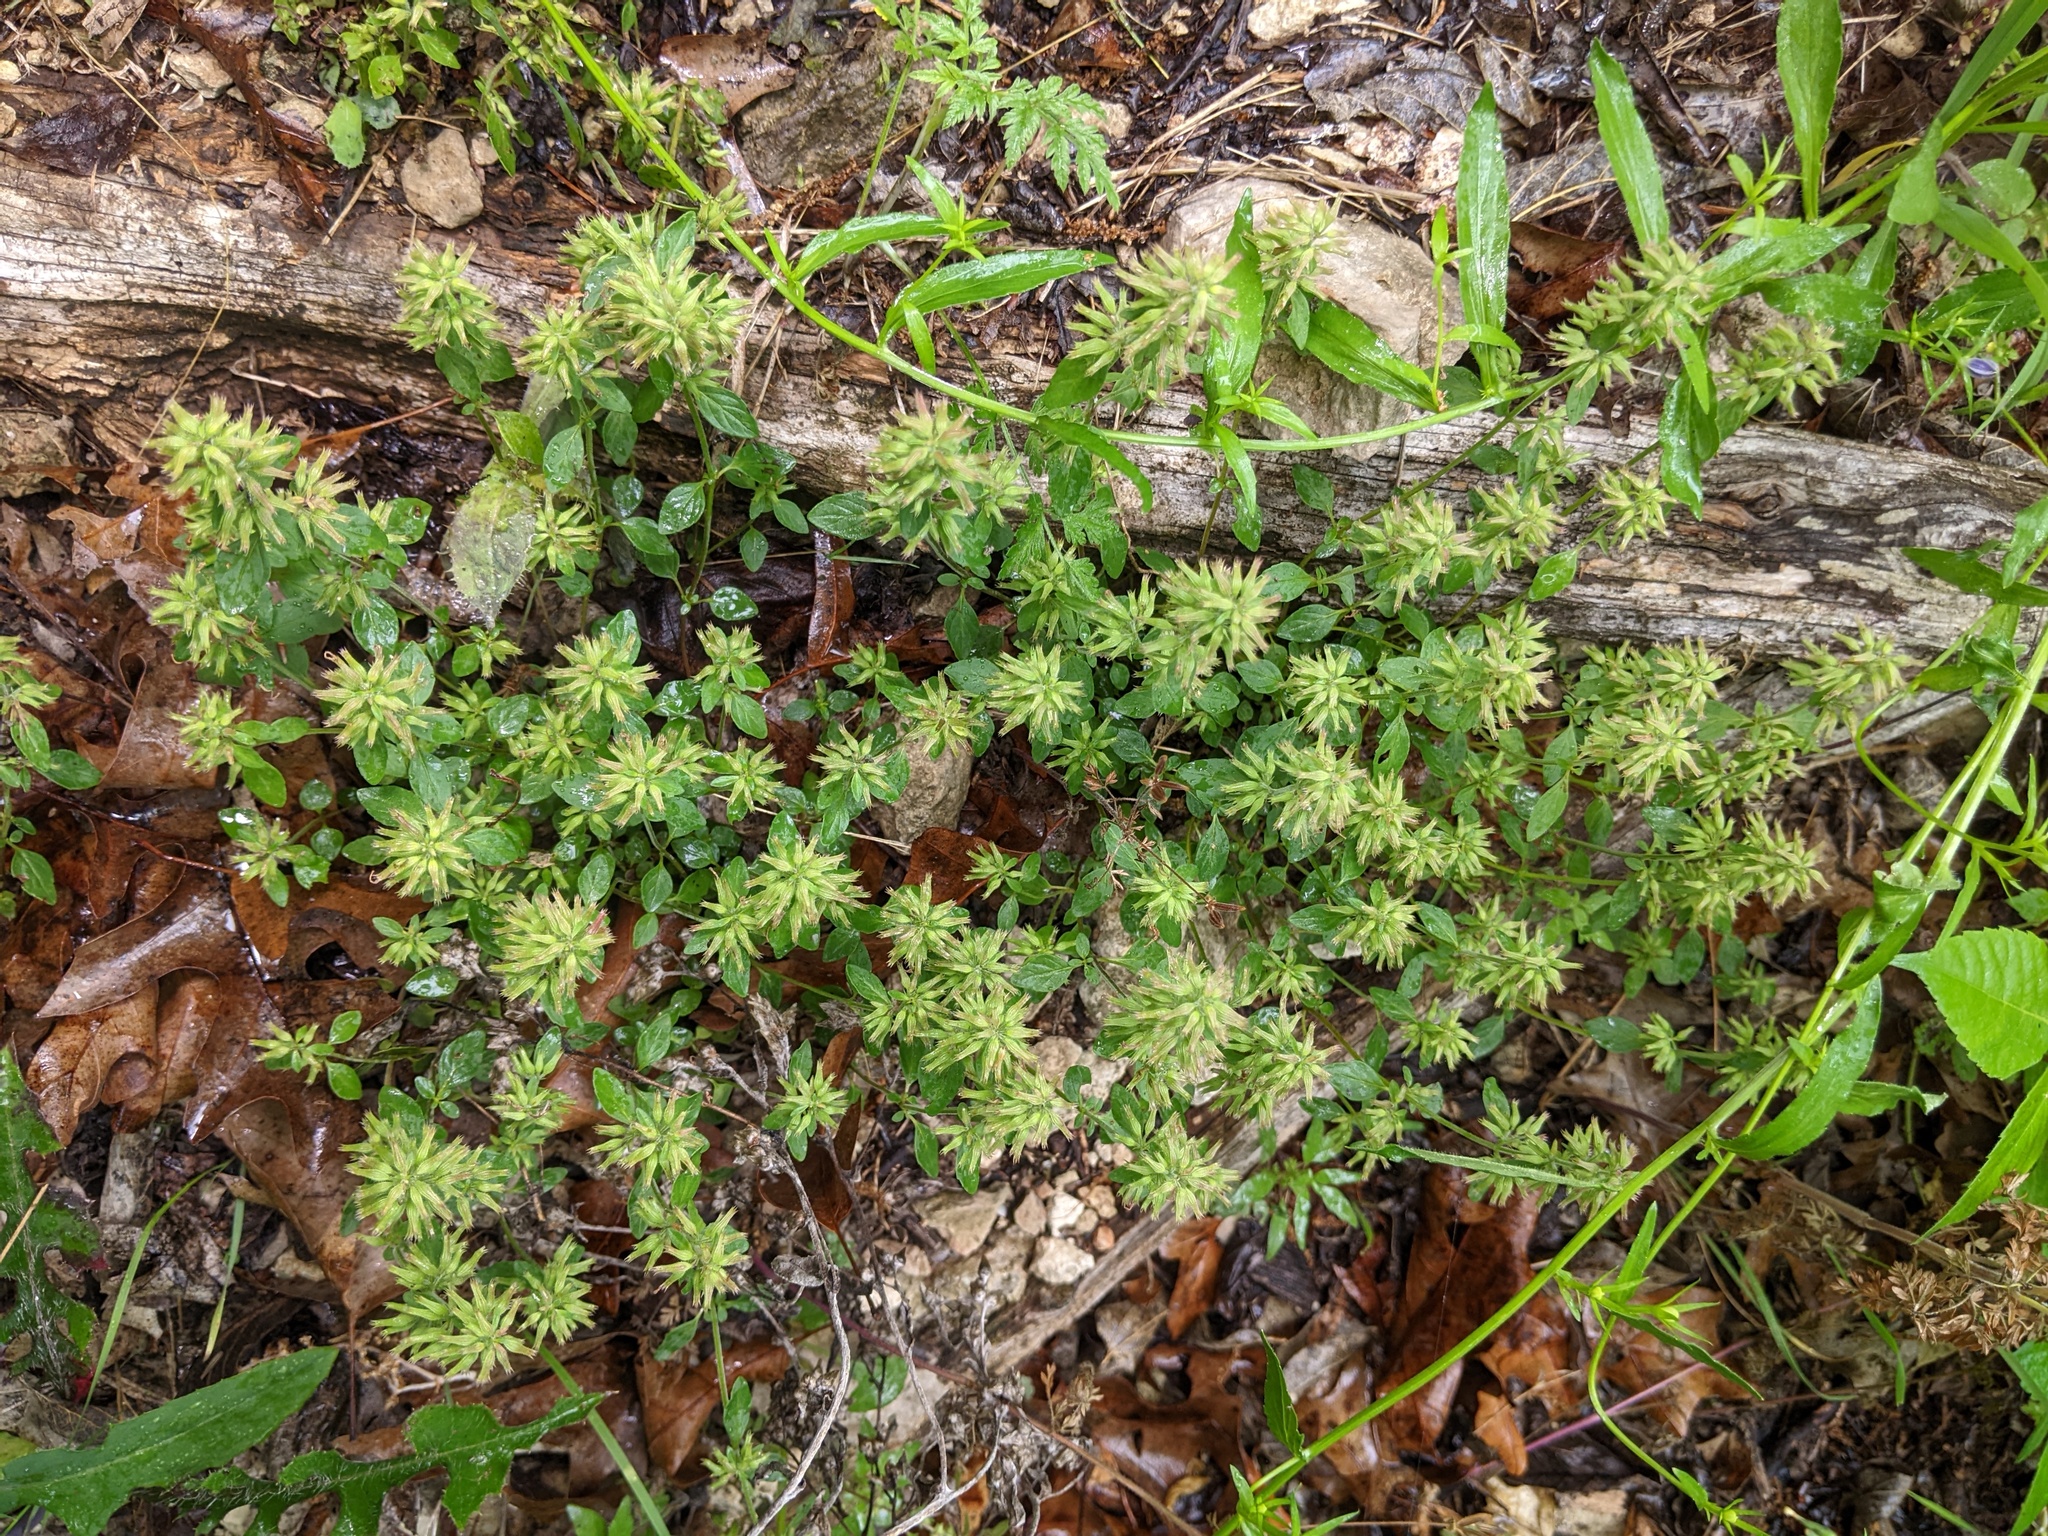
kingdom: Plantae
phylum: Tracheophyta
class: Magnoliopsida
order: Lamiales
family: Lamiaceae
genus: Hedeoma
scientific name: Hedeoma acinoides
